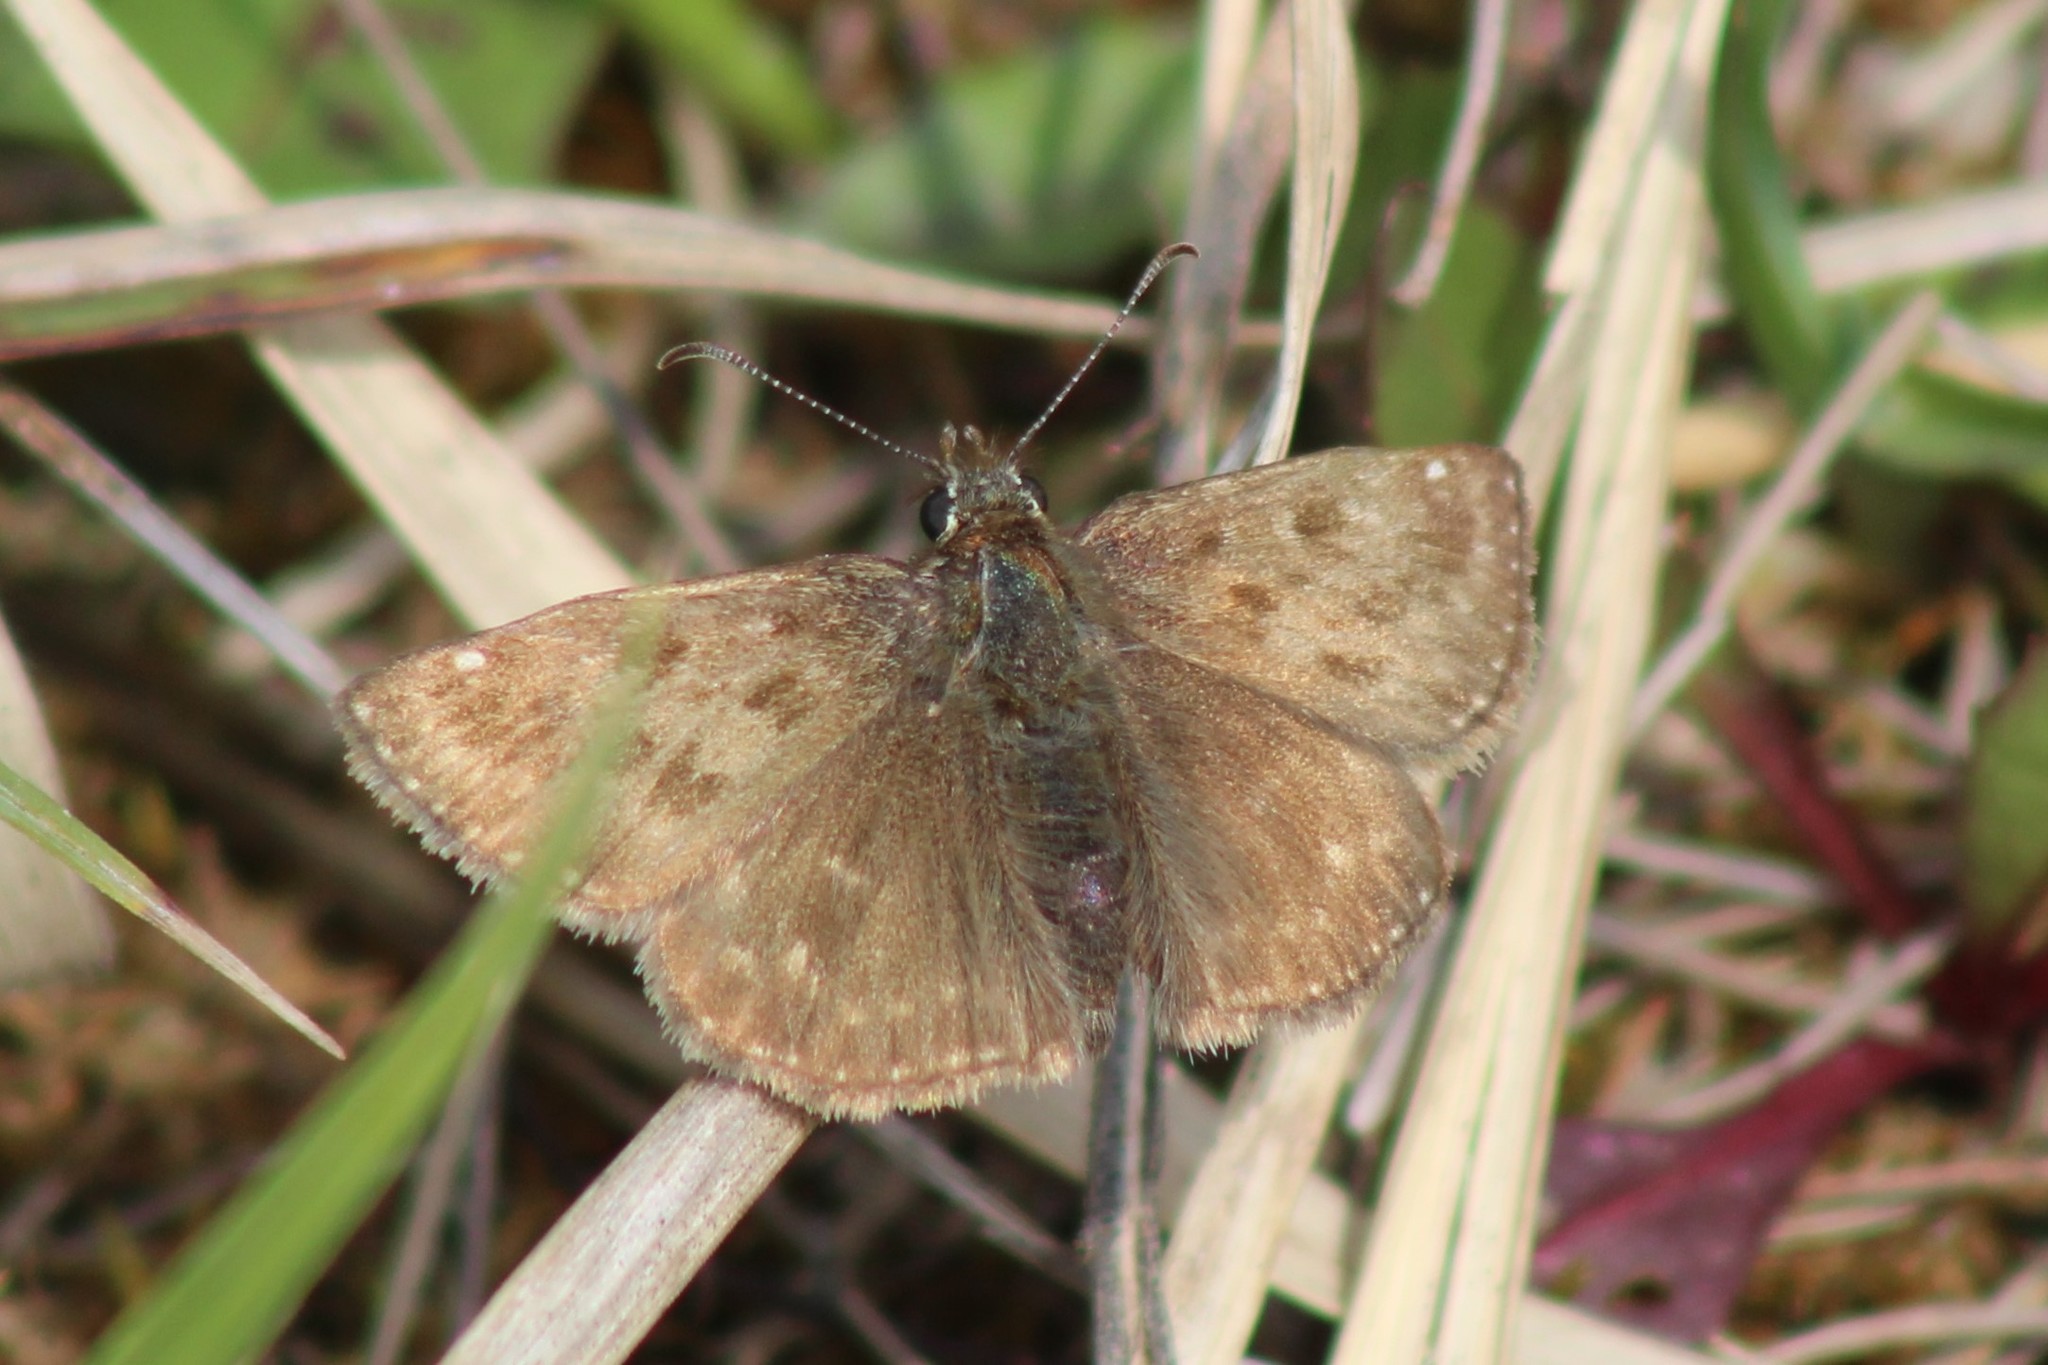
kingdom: Animalia
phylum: Arthropoda
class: Insecta
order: Lepidoptera
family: Hesperiidae
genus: Erynnis
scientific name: Erynnis tages
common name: Dingy skipper
